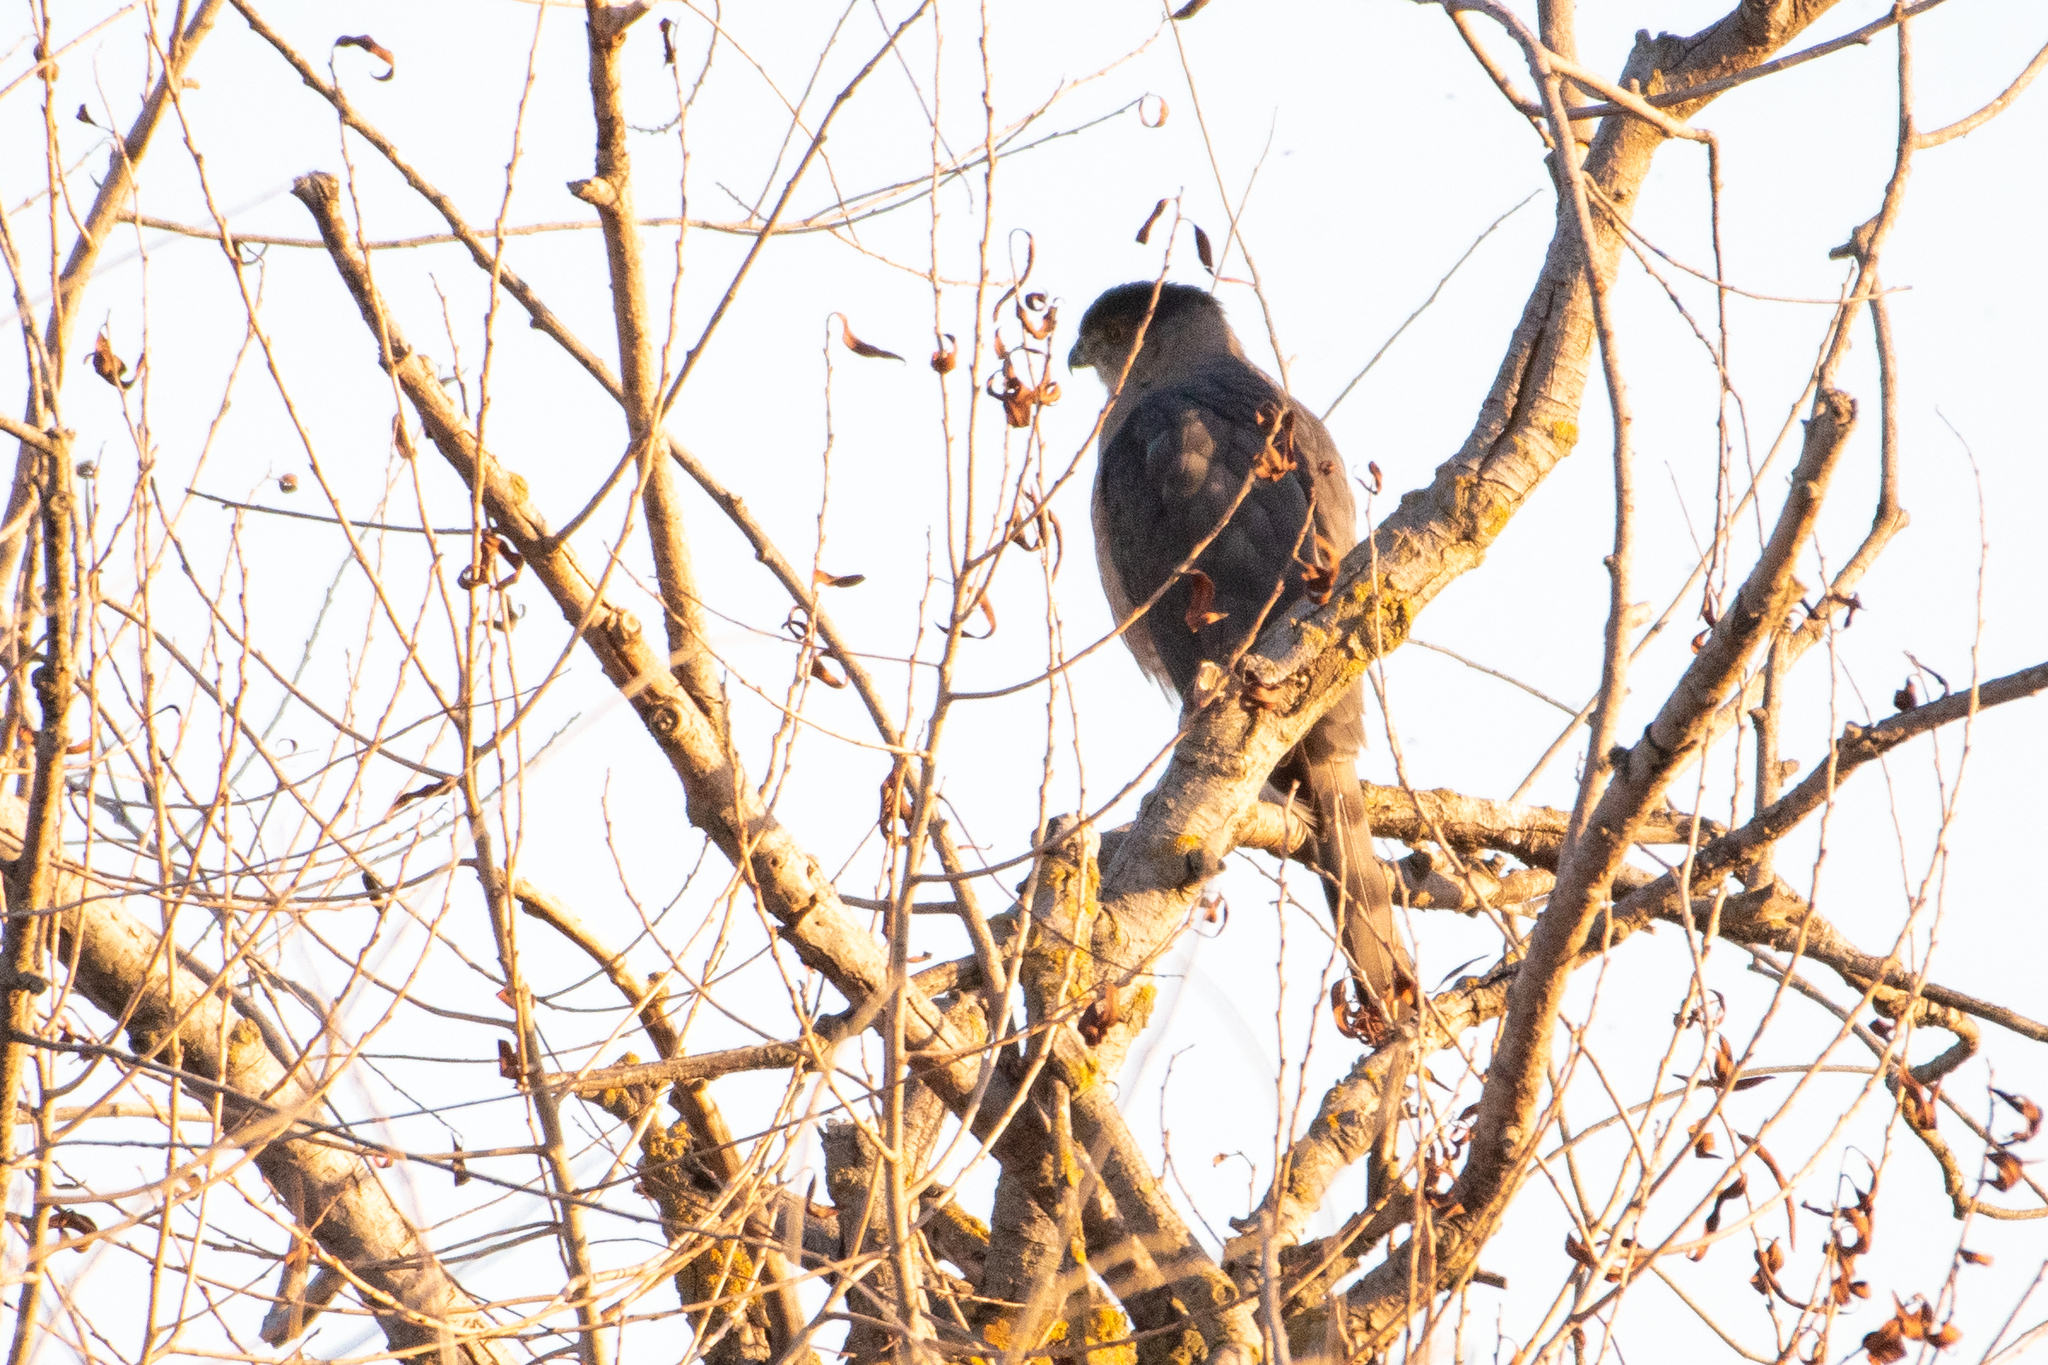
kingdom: Animalia
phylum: Chordata
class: Aves
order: Accipitriformes
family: Accipitridae
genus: Accipiter
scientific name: Accipiter cooperii
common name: Cooper's hawk
